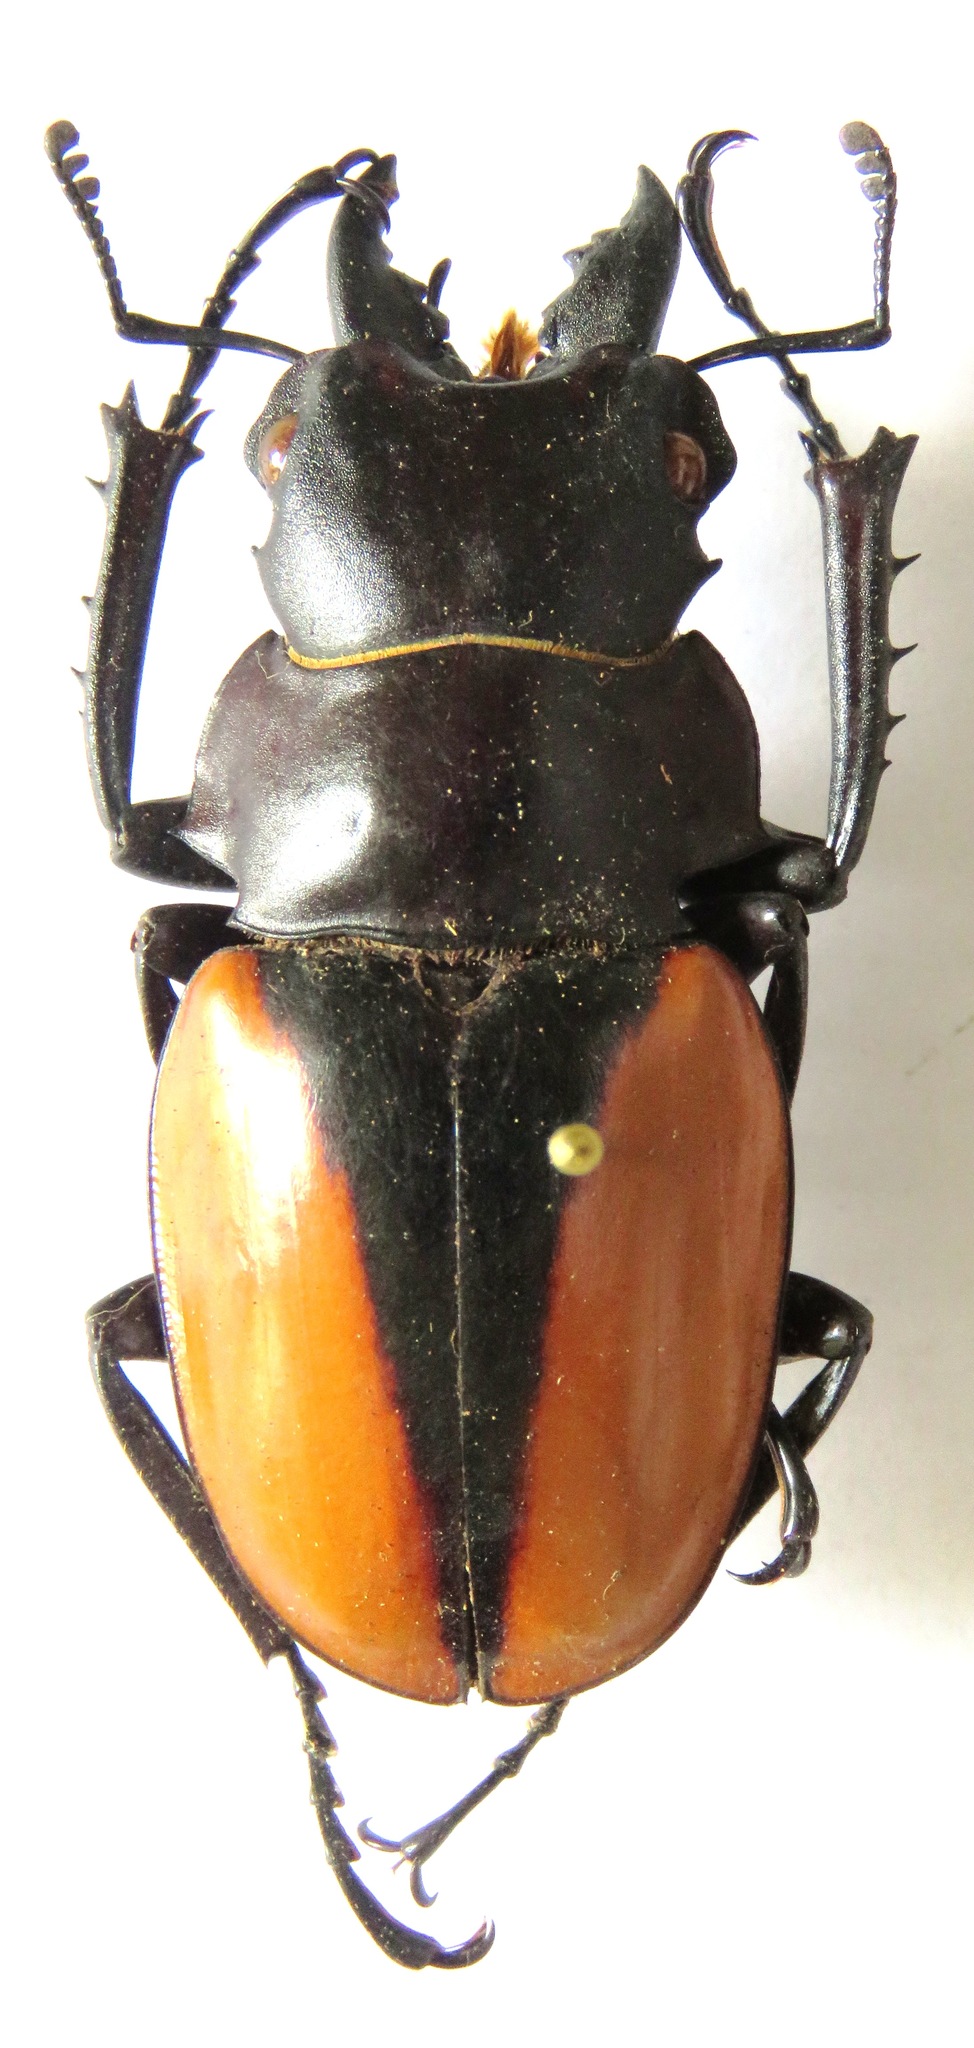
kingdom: Animalia
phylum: Arthropoda
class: Insecta
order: Coleoptera
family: Lucanidae
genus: Odontolabis
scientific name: Odontolabis cuvera
